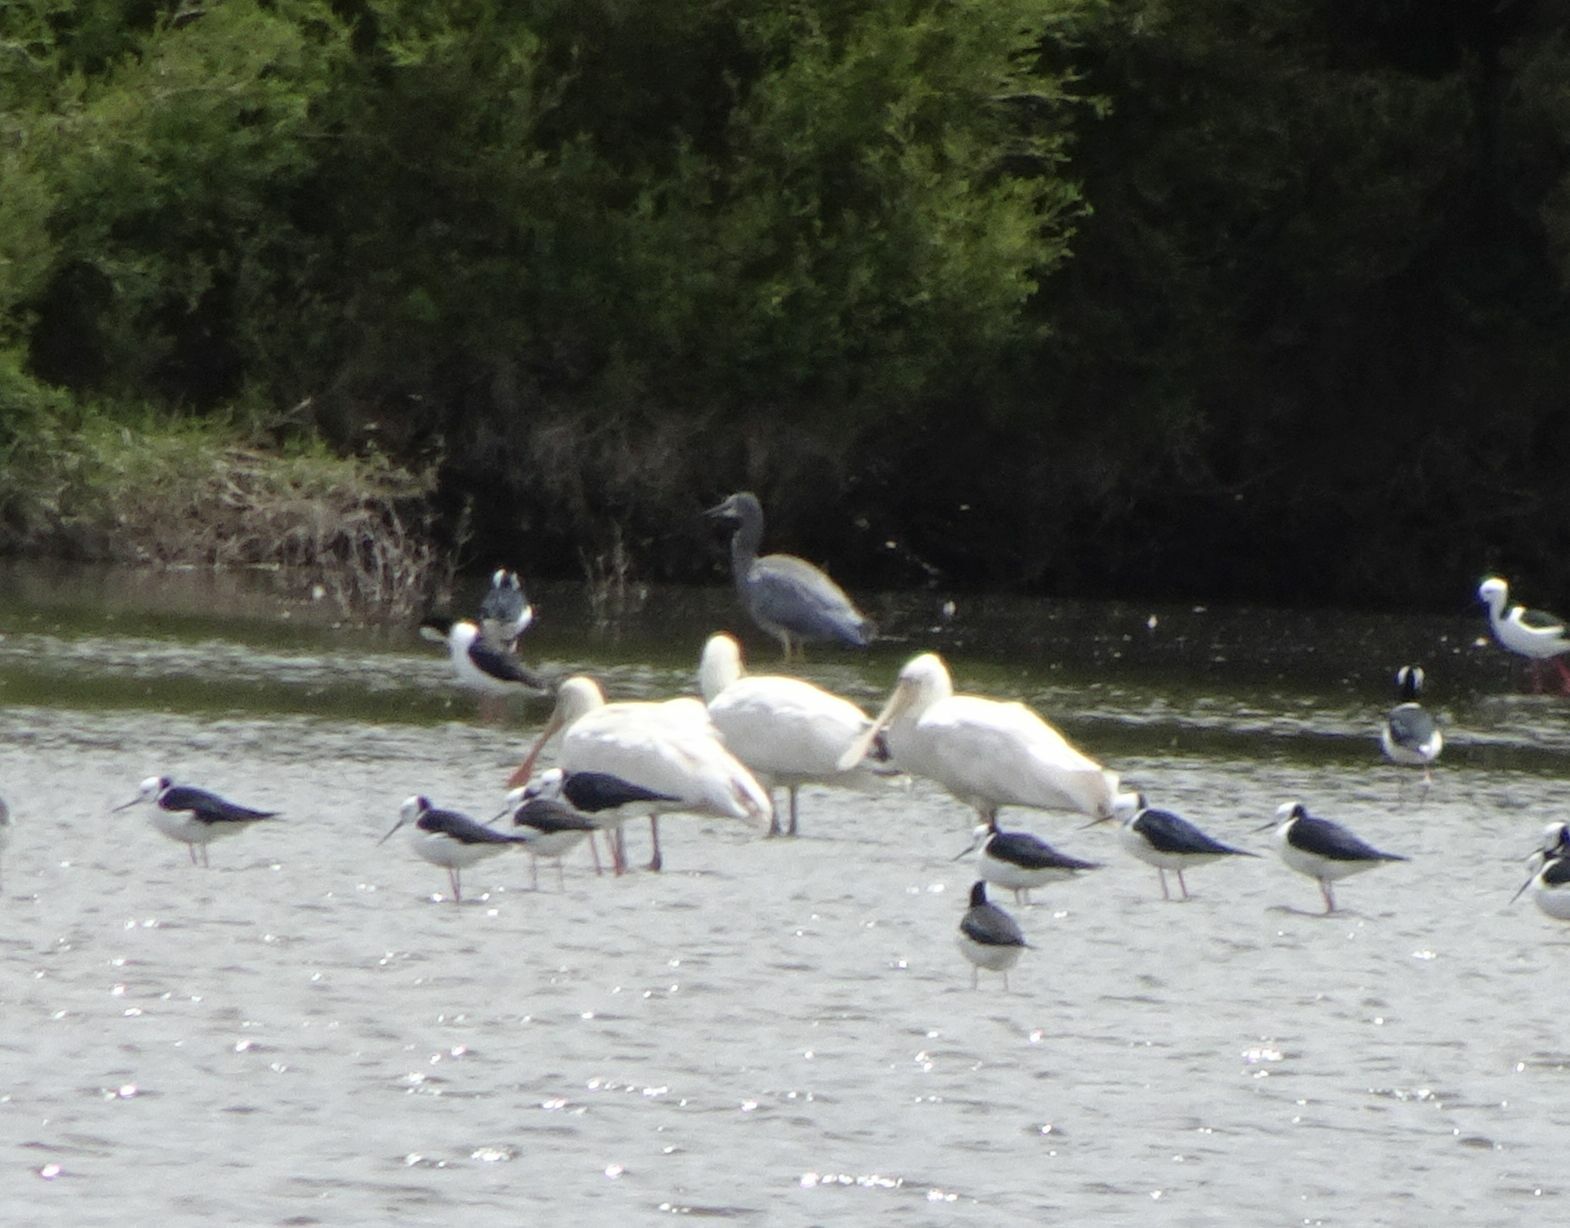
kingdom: Animalia
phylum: Chordata
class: Aves
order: Pelecaniformes
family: Ardeidae
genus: Egretta
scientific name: Egretta novaehollandiae
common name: White-faced heron
